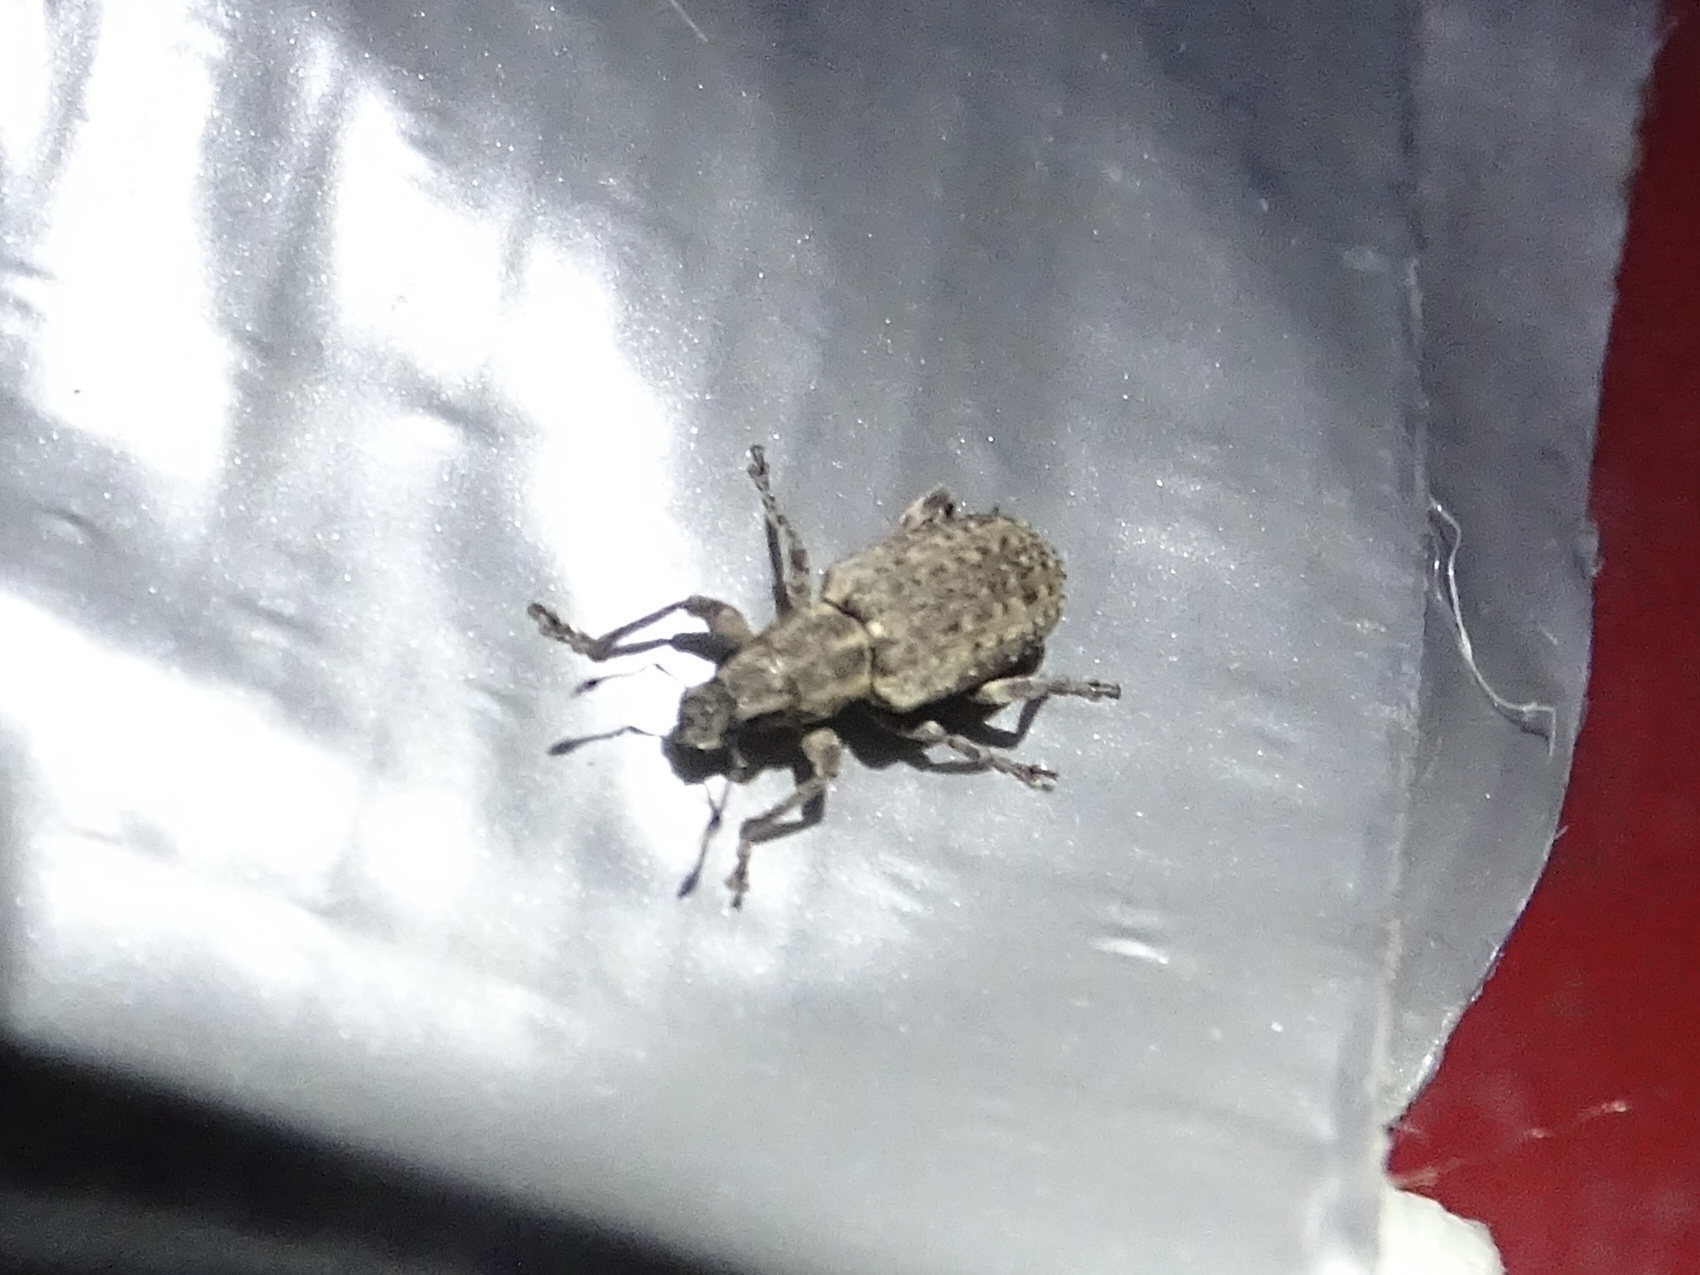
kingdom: Animalia
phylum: Arthropoda
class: Insecta
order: Coleoptera
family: Curculionidae
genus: Sitones
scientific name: Sitones californius
